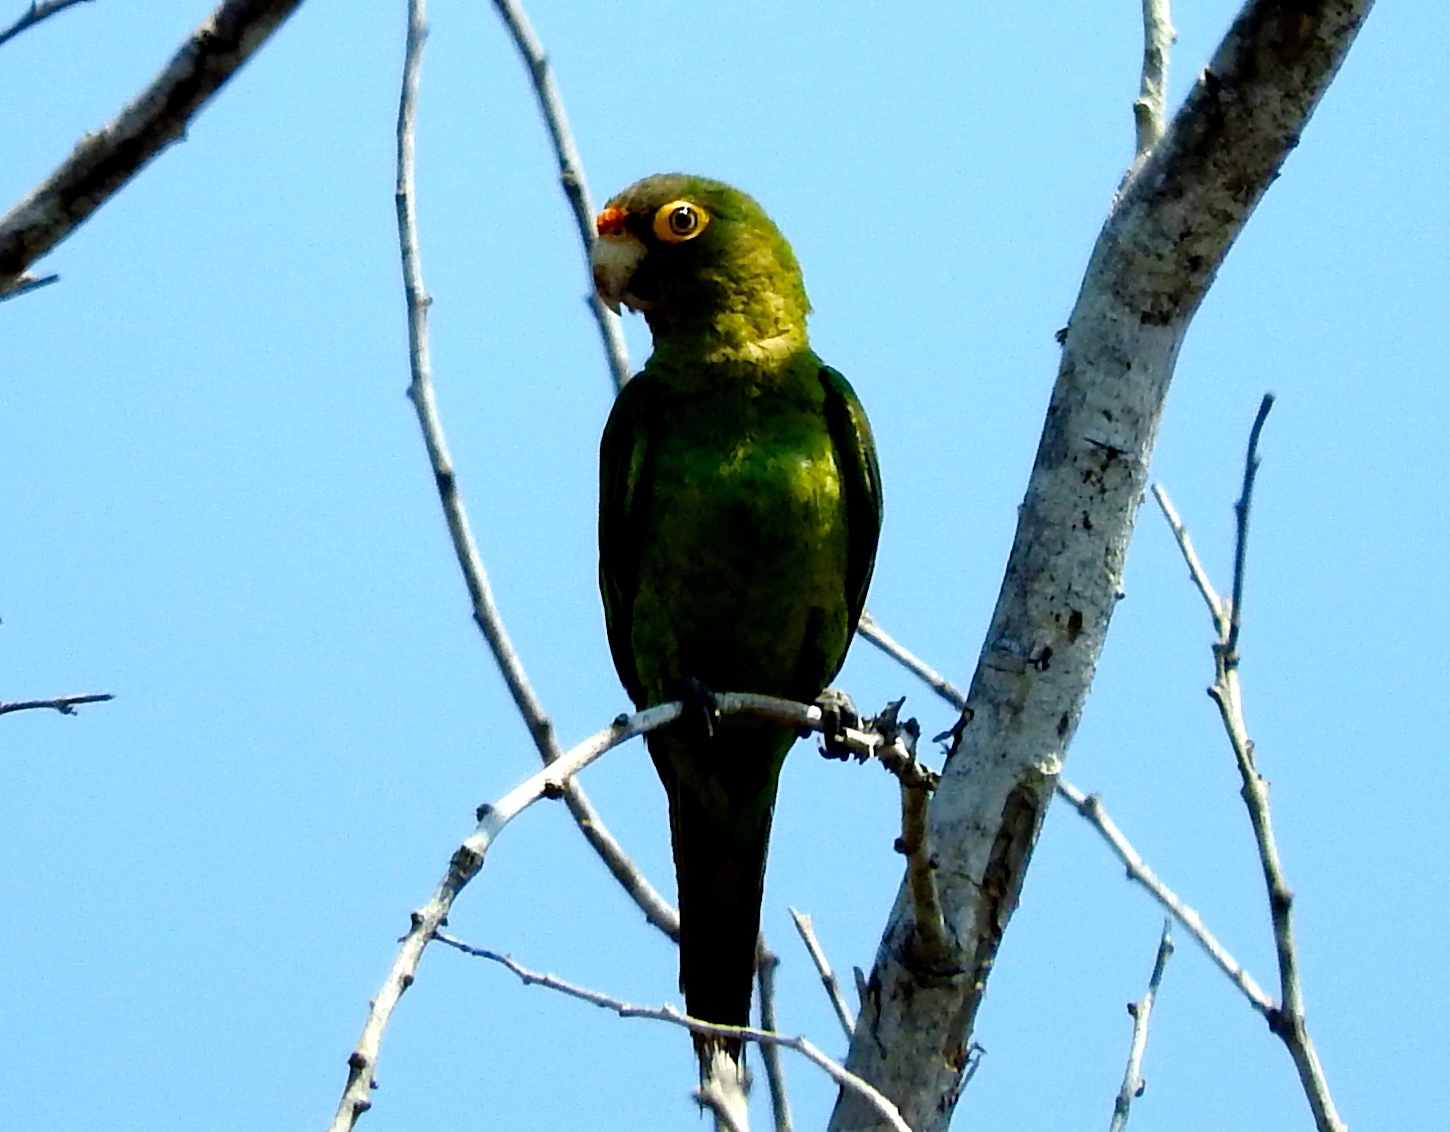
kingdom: Animalia
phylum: Chordata
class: Aves
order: Psittaciformes
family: Psittacidae
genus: Aratinga
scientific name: Aratinga canicularis
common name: Orange-fronted parakeet
